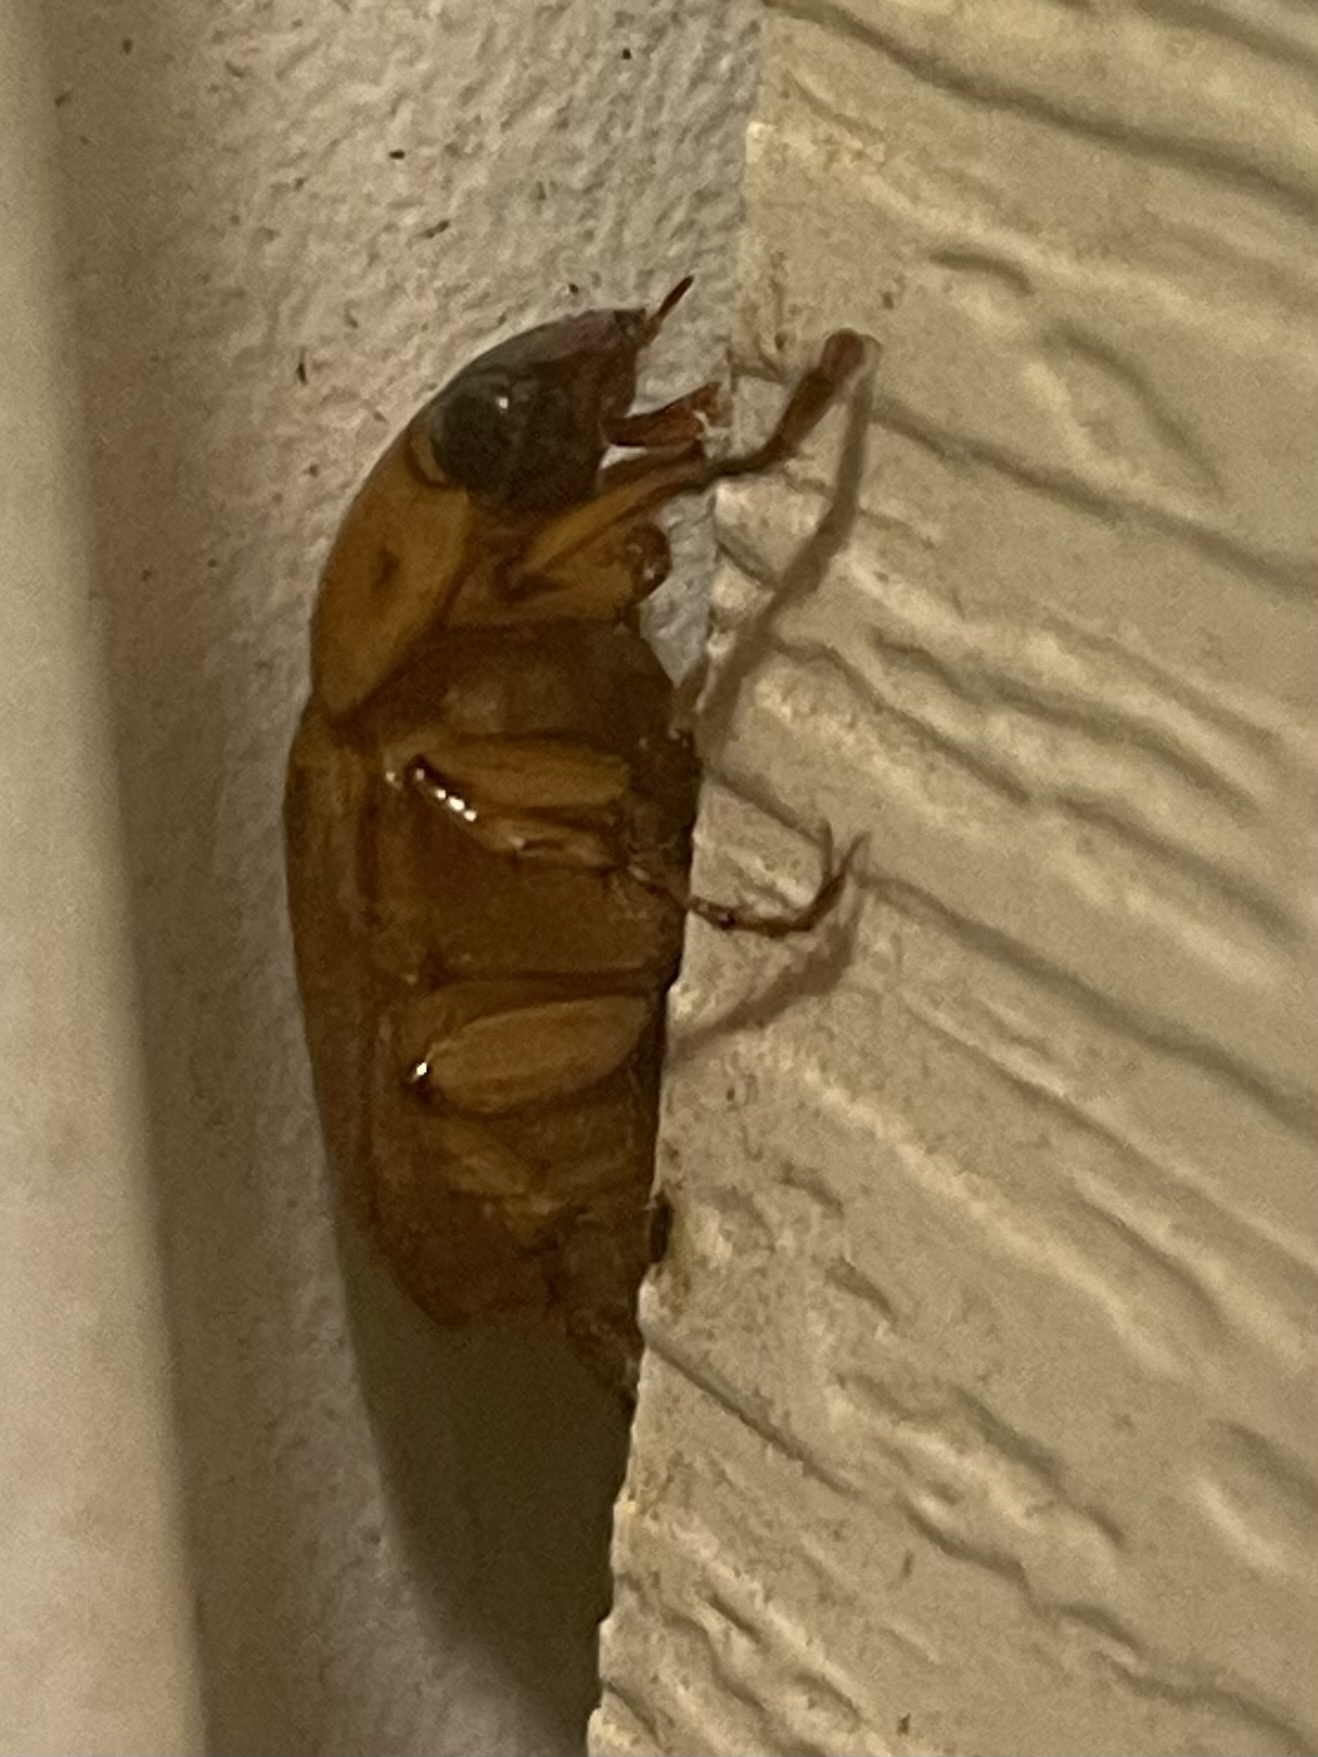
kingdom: Animalia
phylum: Arthropoda
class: Insecta
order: Coleoptera
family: Scarabaeidae
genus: Cyclocephala
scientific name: Cyclocephala lurida
